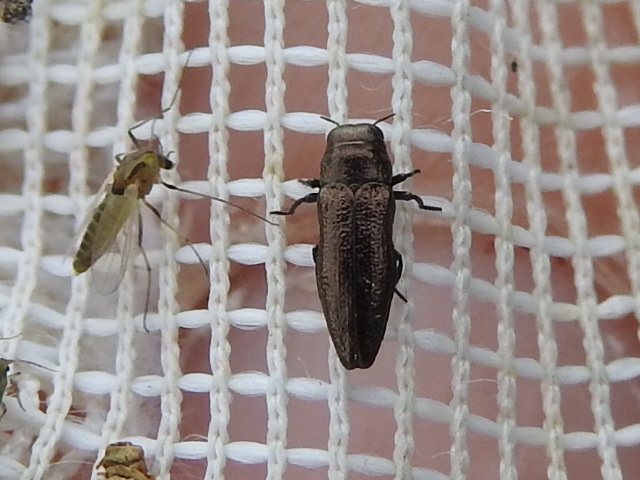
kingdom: Animalia
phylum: Arthropoda
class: Insecta
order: Coleoptera
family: Buprestidae
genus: Taphrocerus
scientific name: Taphrocerus agriloides
